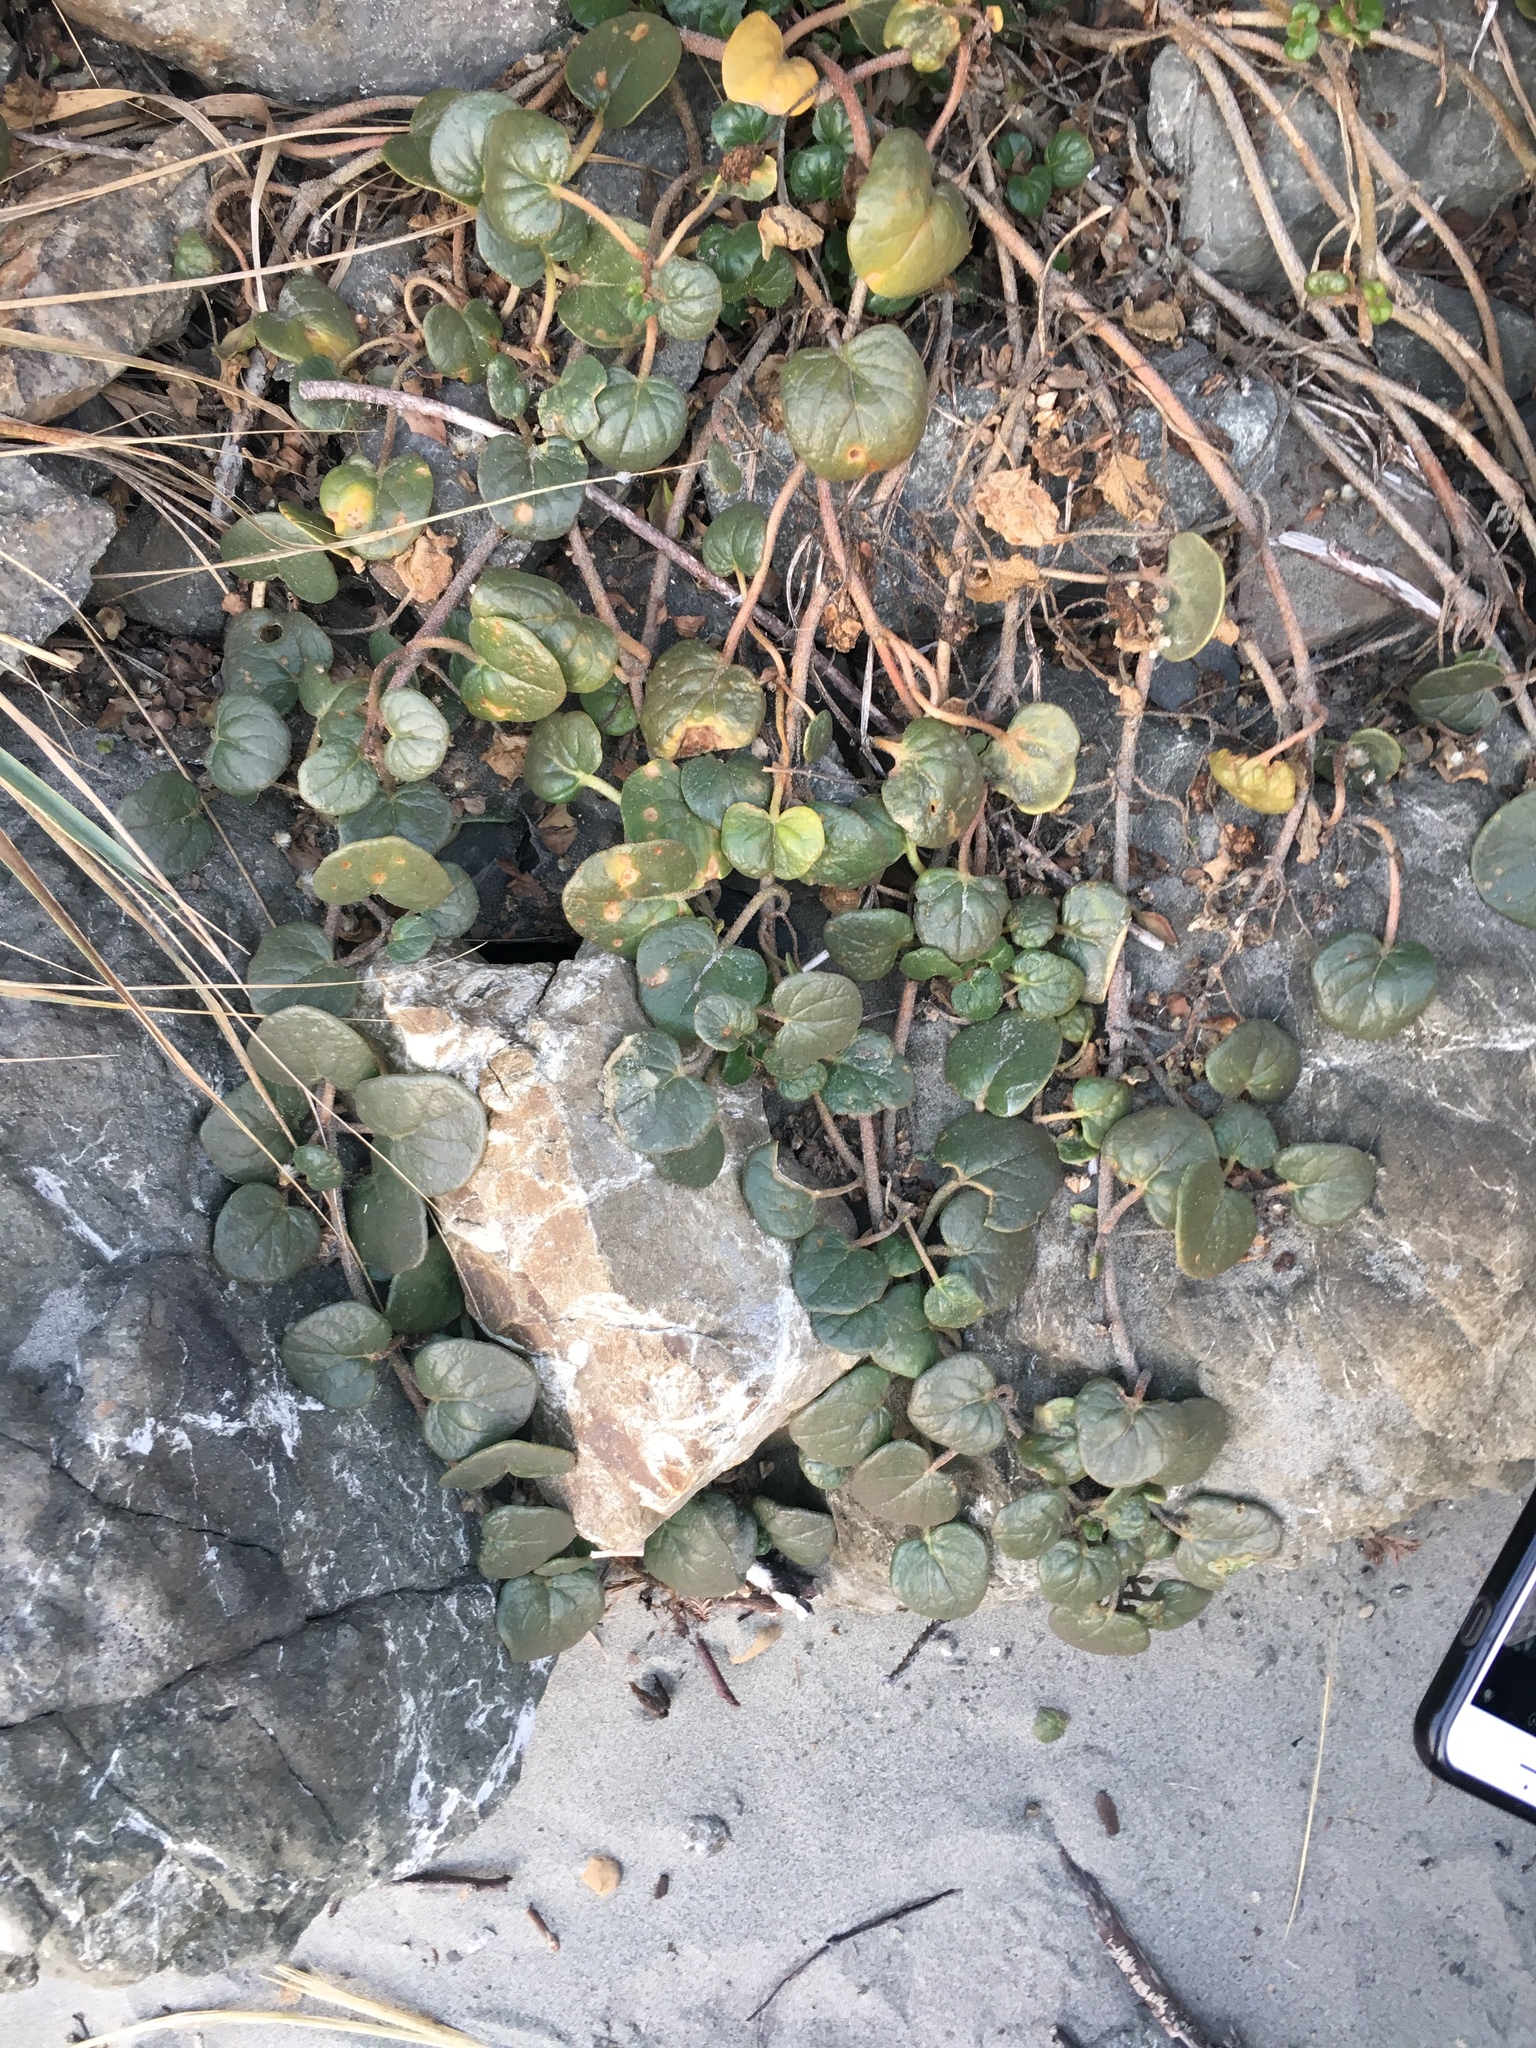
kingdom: Plantae
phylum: Tracheophyta
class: Magnoliopsida
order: Caryophyllales
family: Nyctaginaceae
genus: Abronia
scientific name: Abronia latifolia
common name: Yellow sand-verbena
